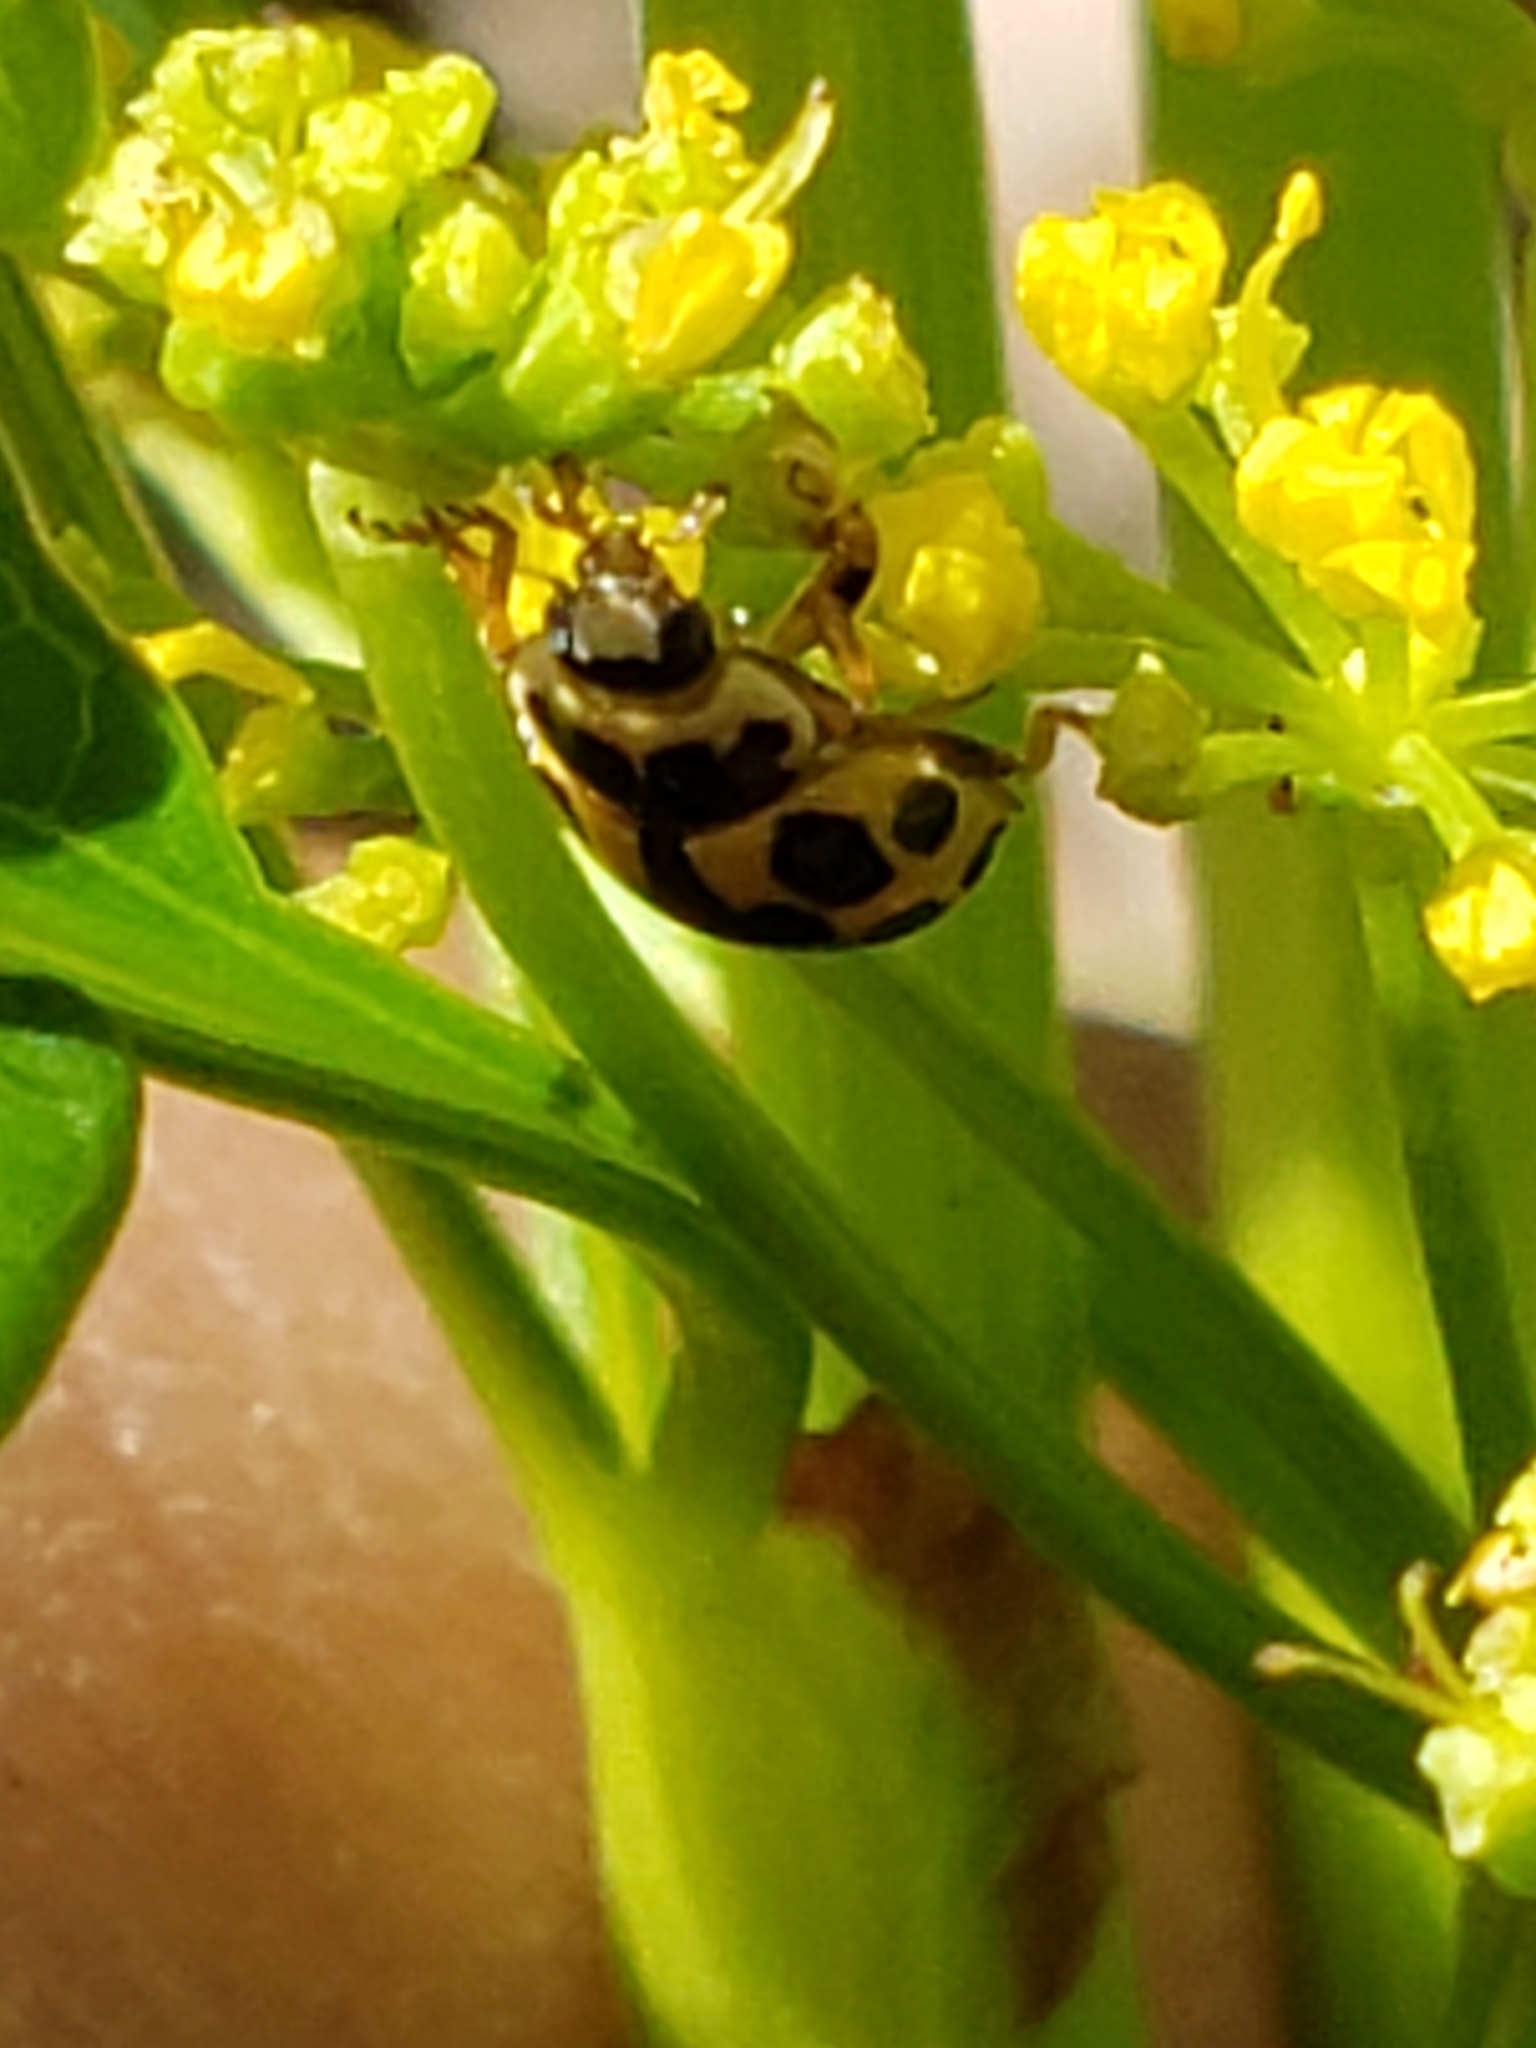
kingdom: Animalia
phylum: Arthropoda
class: Insecta
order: Coleoptera
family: Coccinellidae
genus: Propylaea
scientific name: Propylaea quatuordecimpunctata
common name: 14-spotted ladybird beetle
